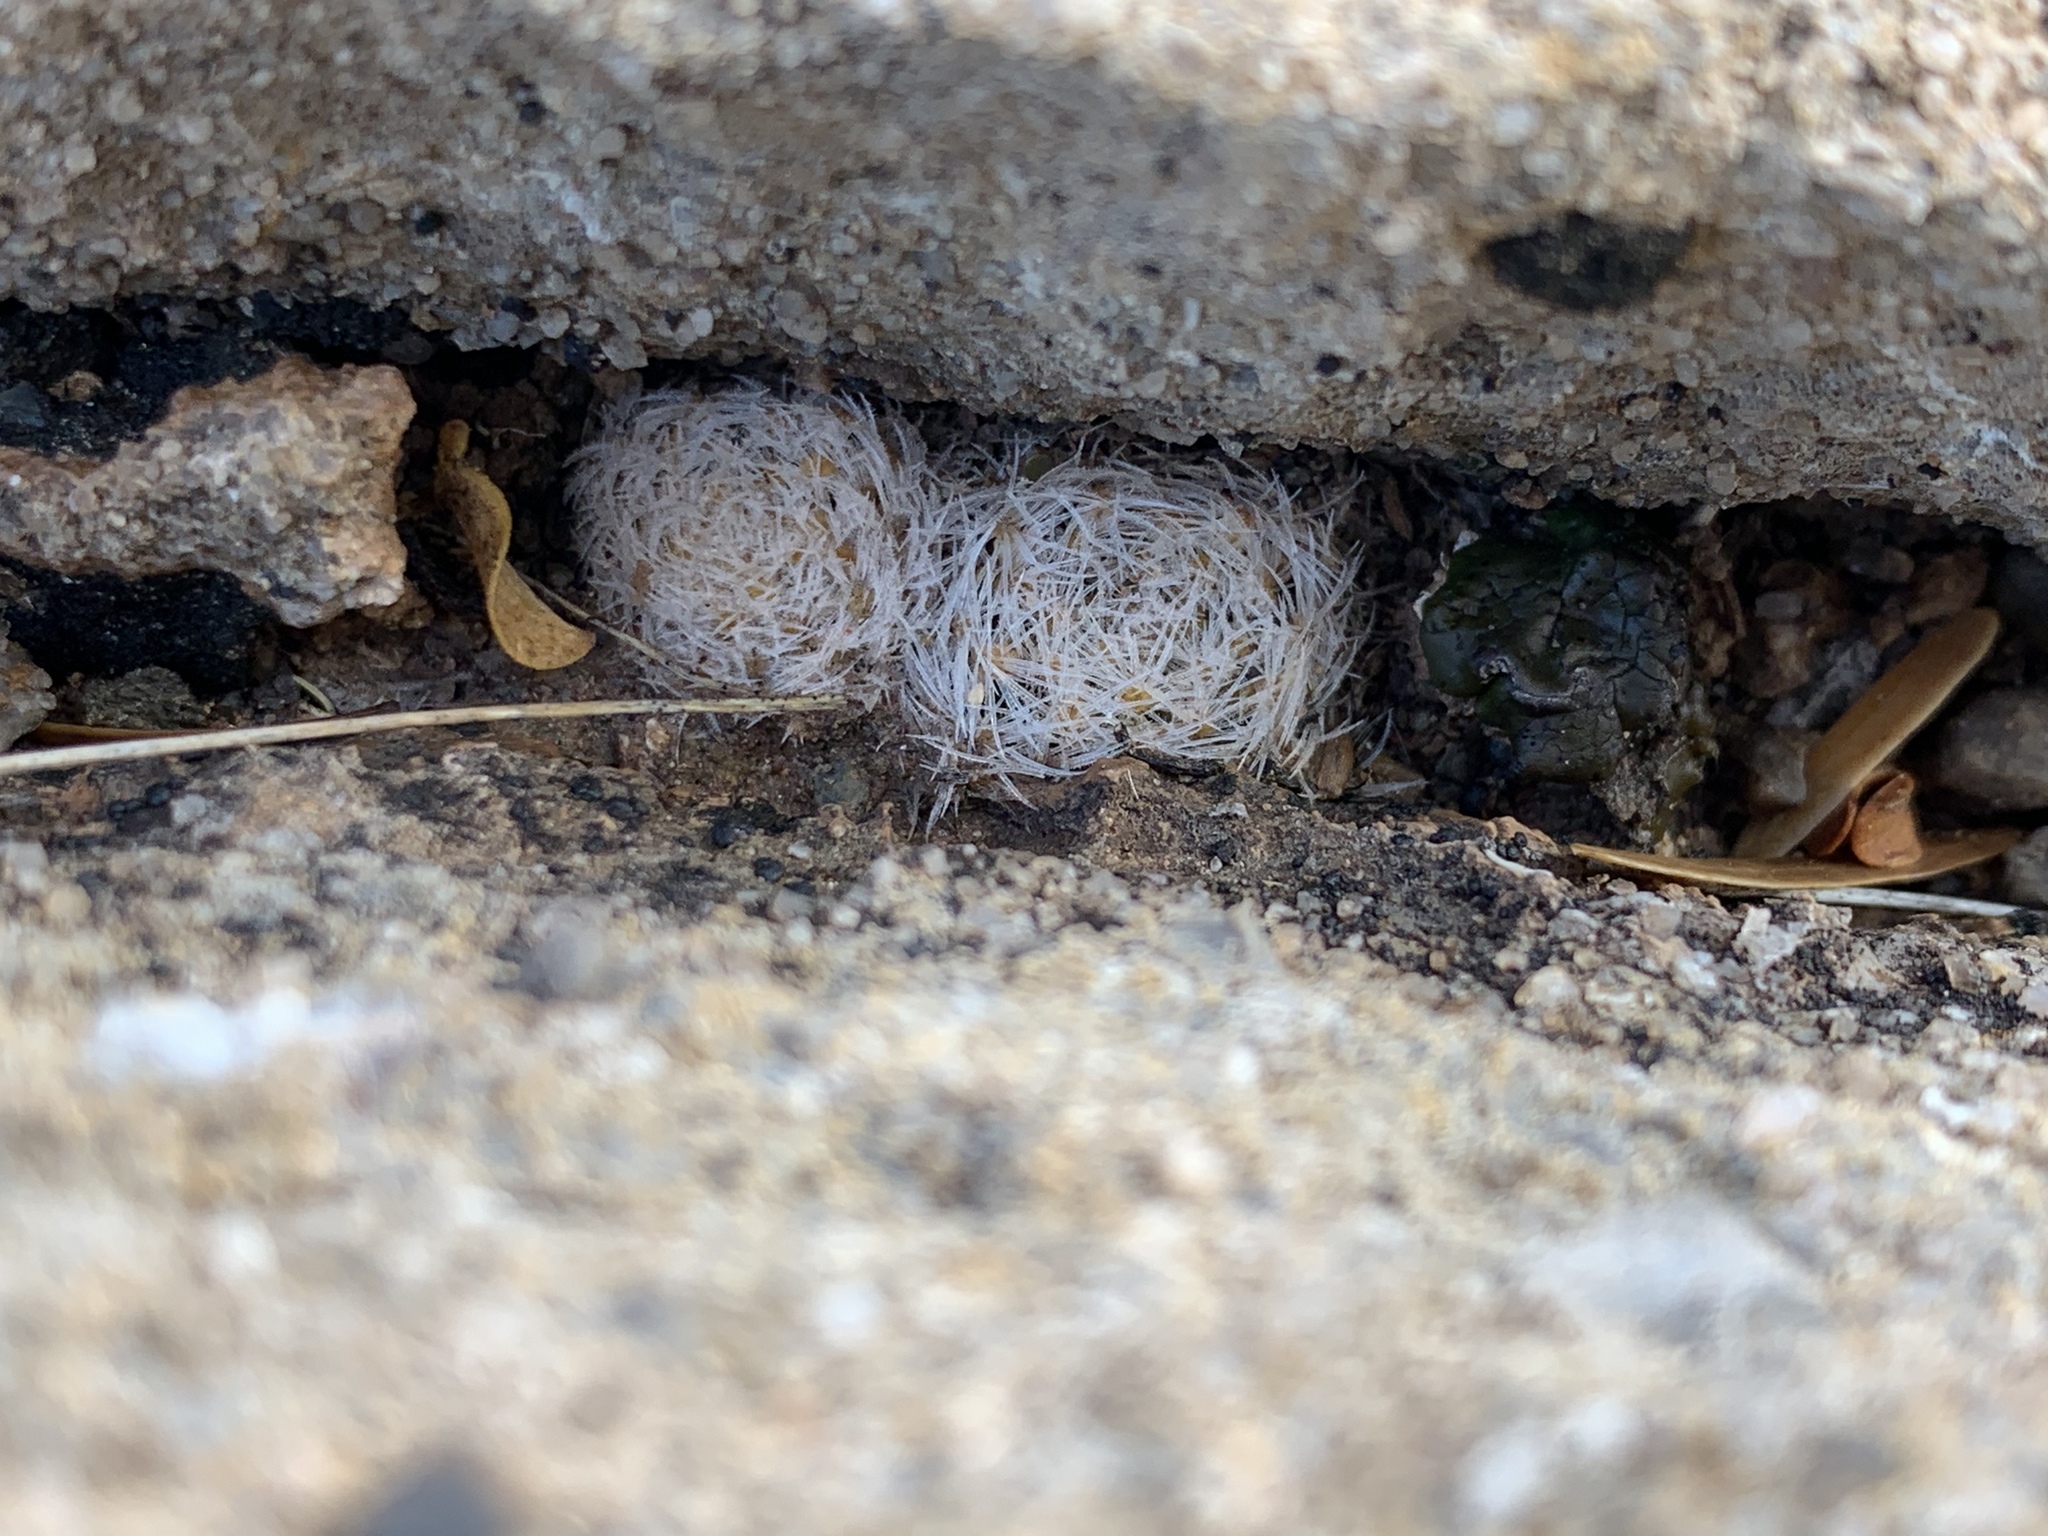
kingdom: Plantae
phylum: Tracheophyta
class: Magnoliopsida
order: Caryophyllales
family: Cactaceae
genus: Mammillaria
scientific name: Mammillaria lasiacantha
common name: Lace-spine nipple cactus
